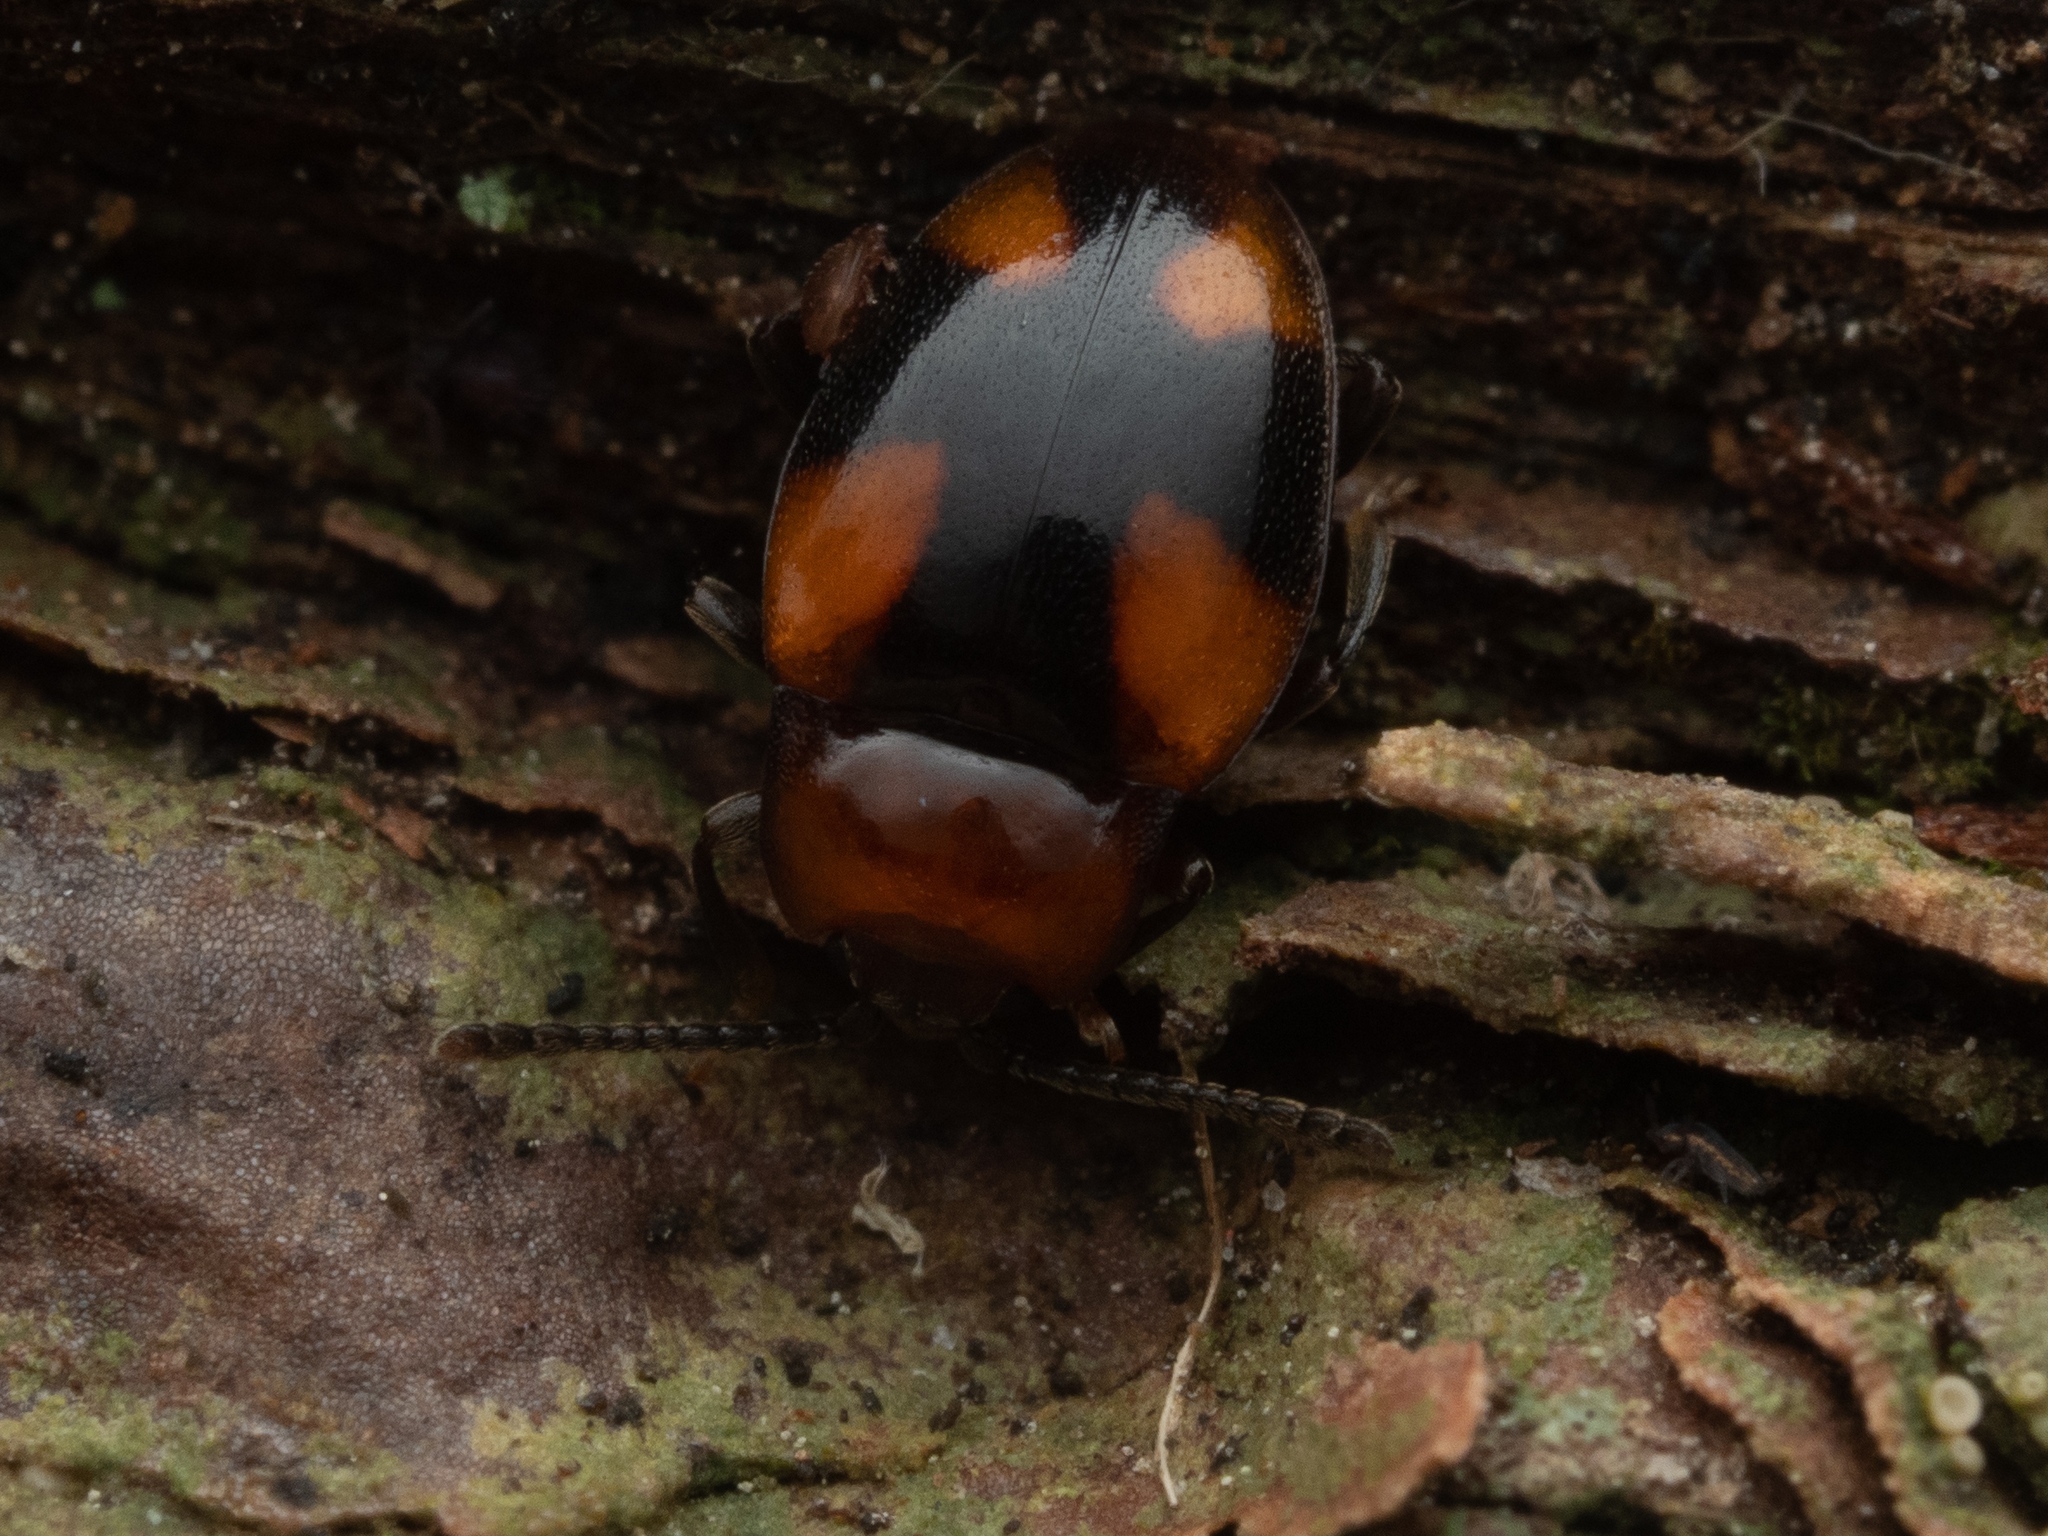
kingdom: Animalia
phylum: Arthropoda
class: Insecta
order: Coleoptera
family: Endomychidae
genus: Mycetina
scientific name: Mycetina cruciata
